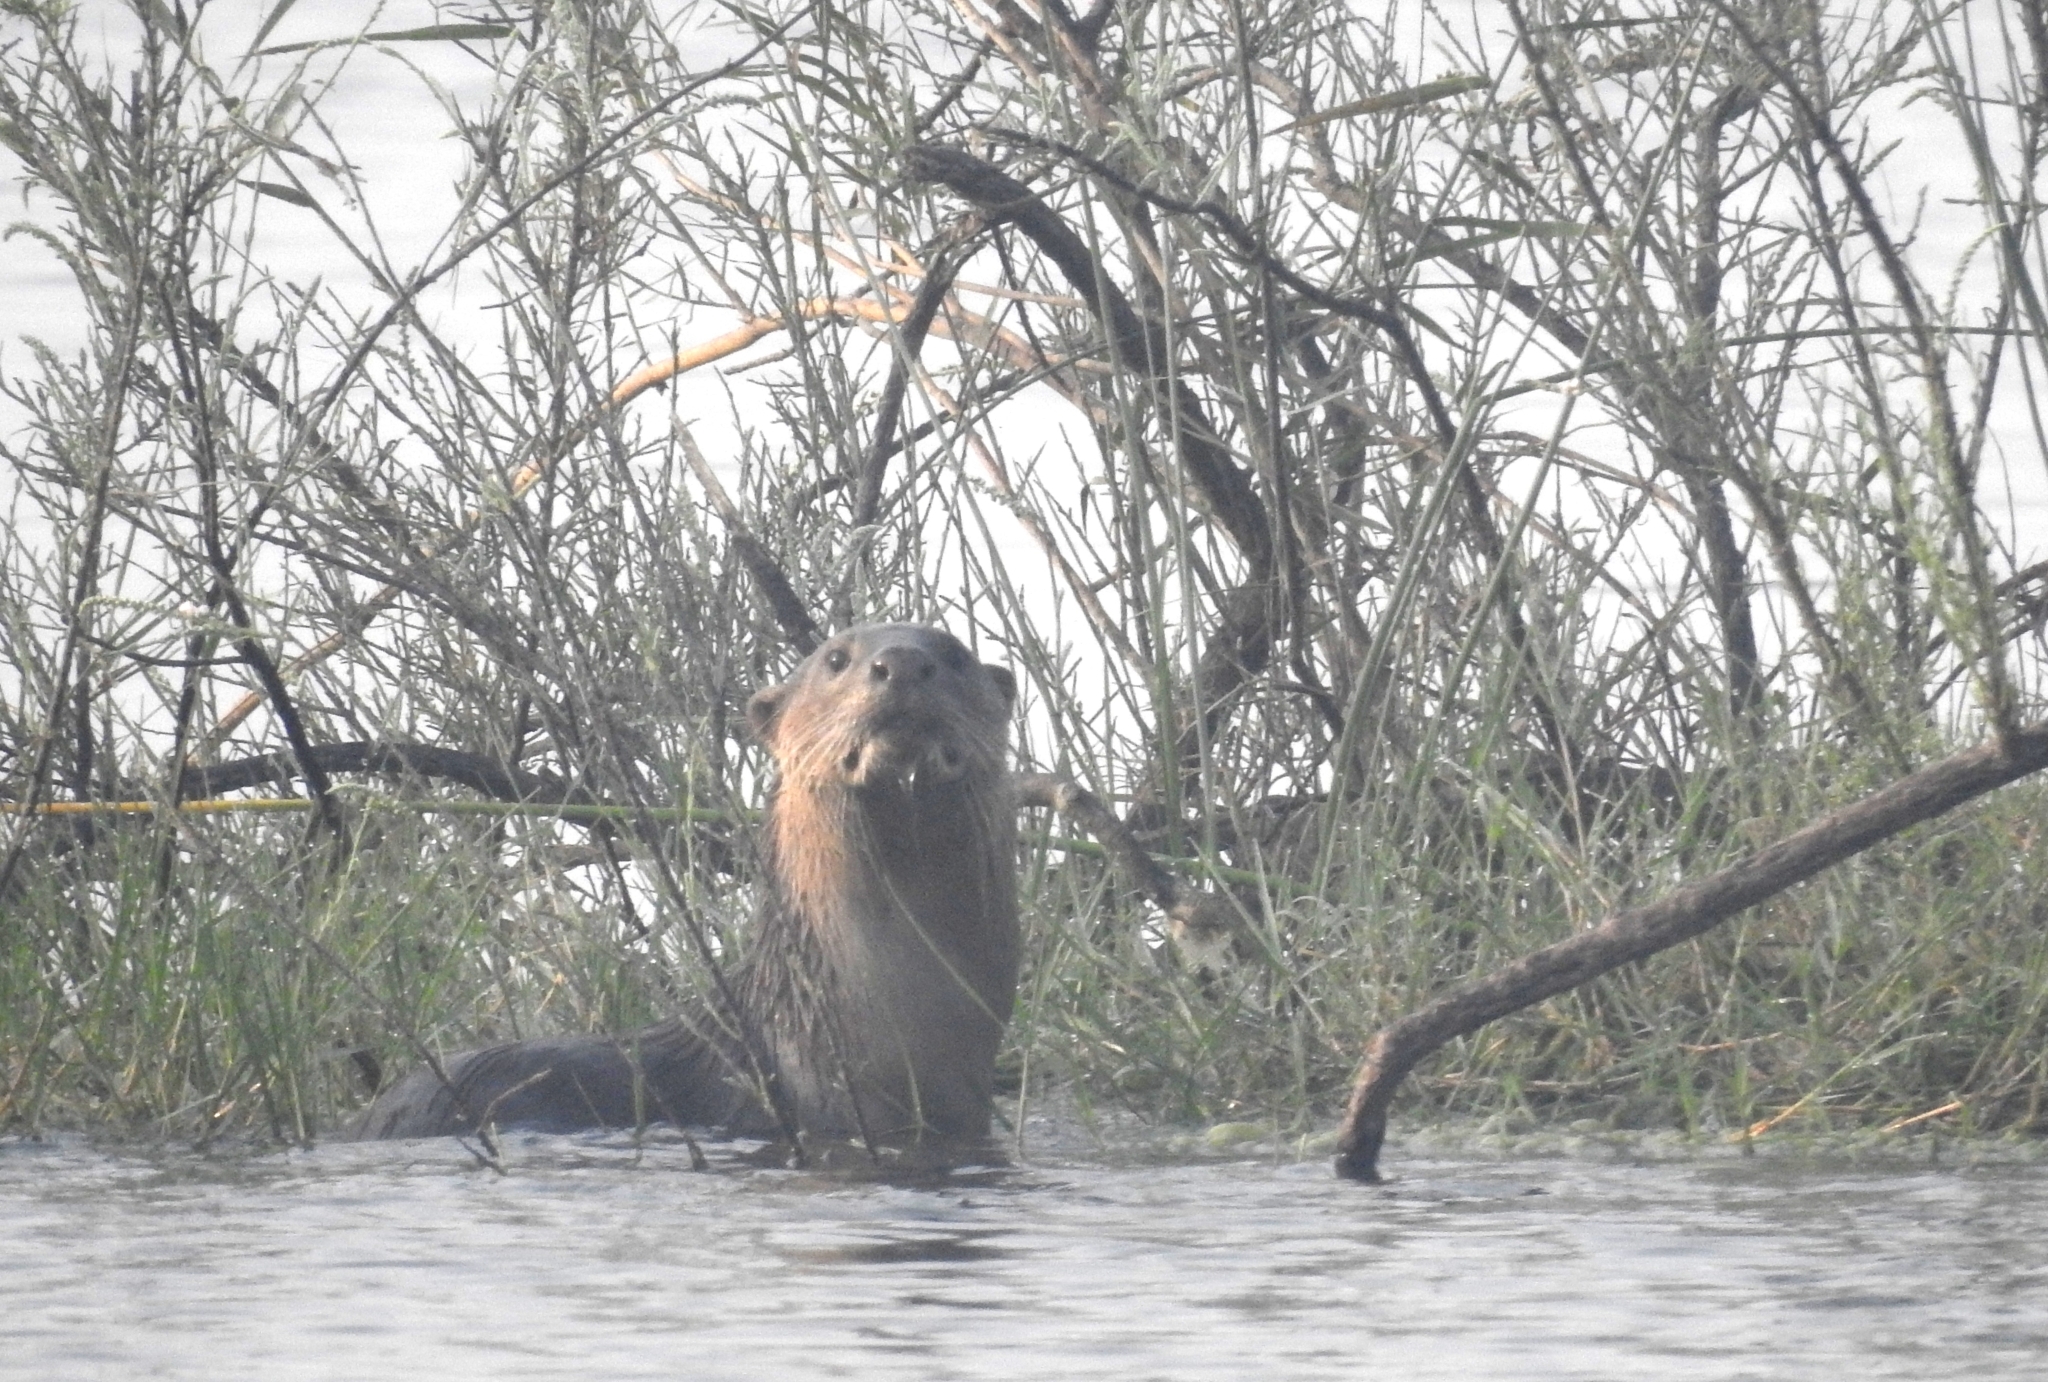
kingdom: Animalia
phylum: Chordata
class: Mammalia
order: Carnivora
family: Mustelidae
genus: Lutrogale
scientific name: Lutrogale perspicillata
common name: Smooth-coated otter
